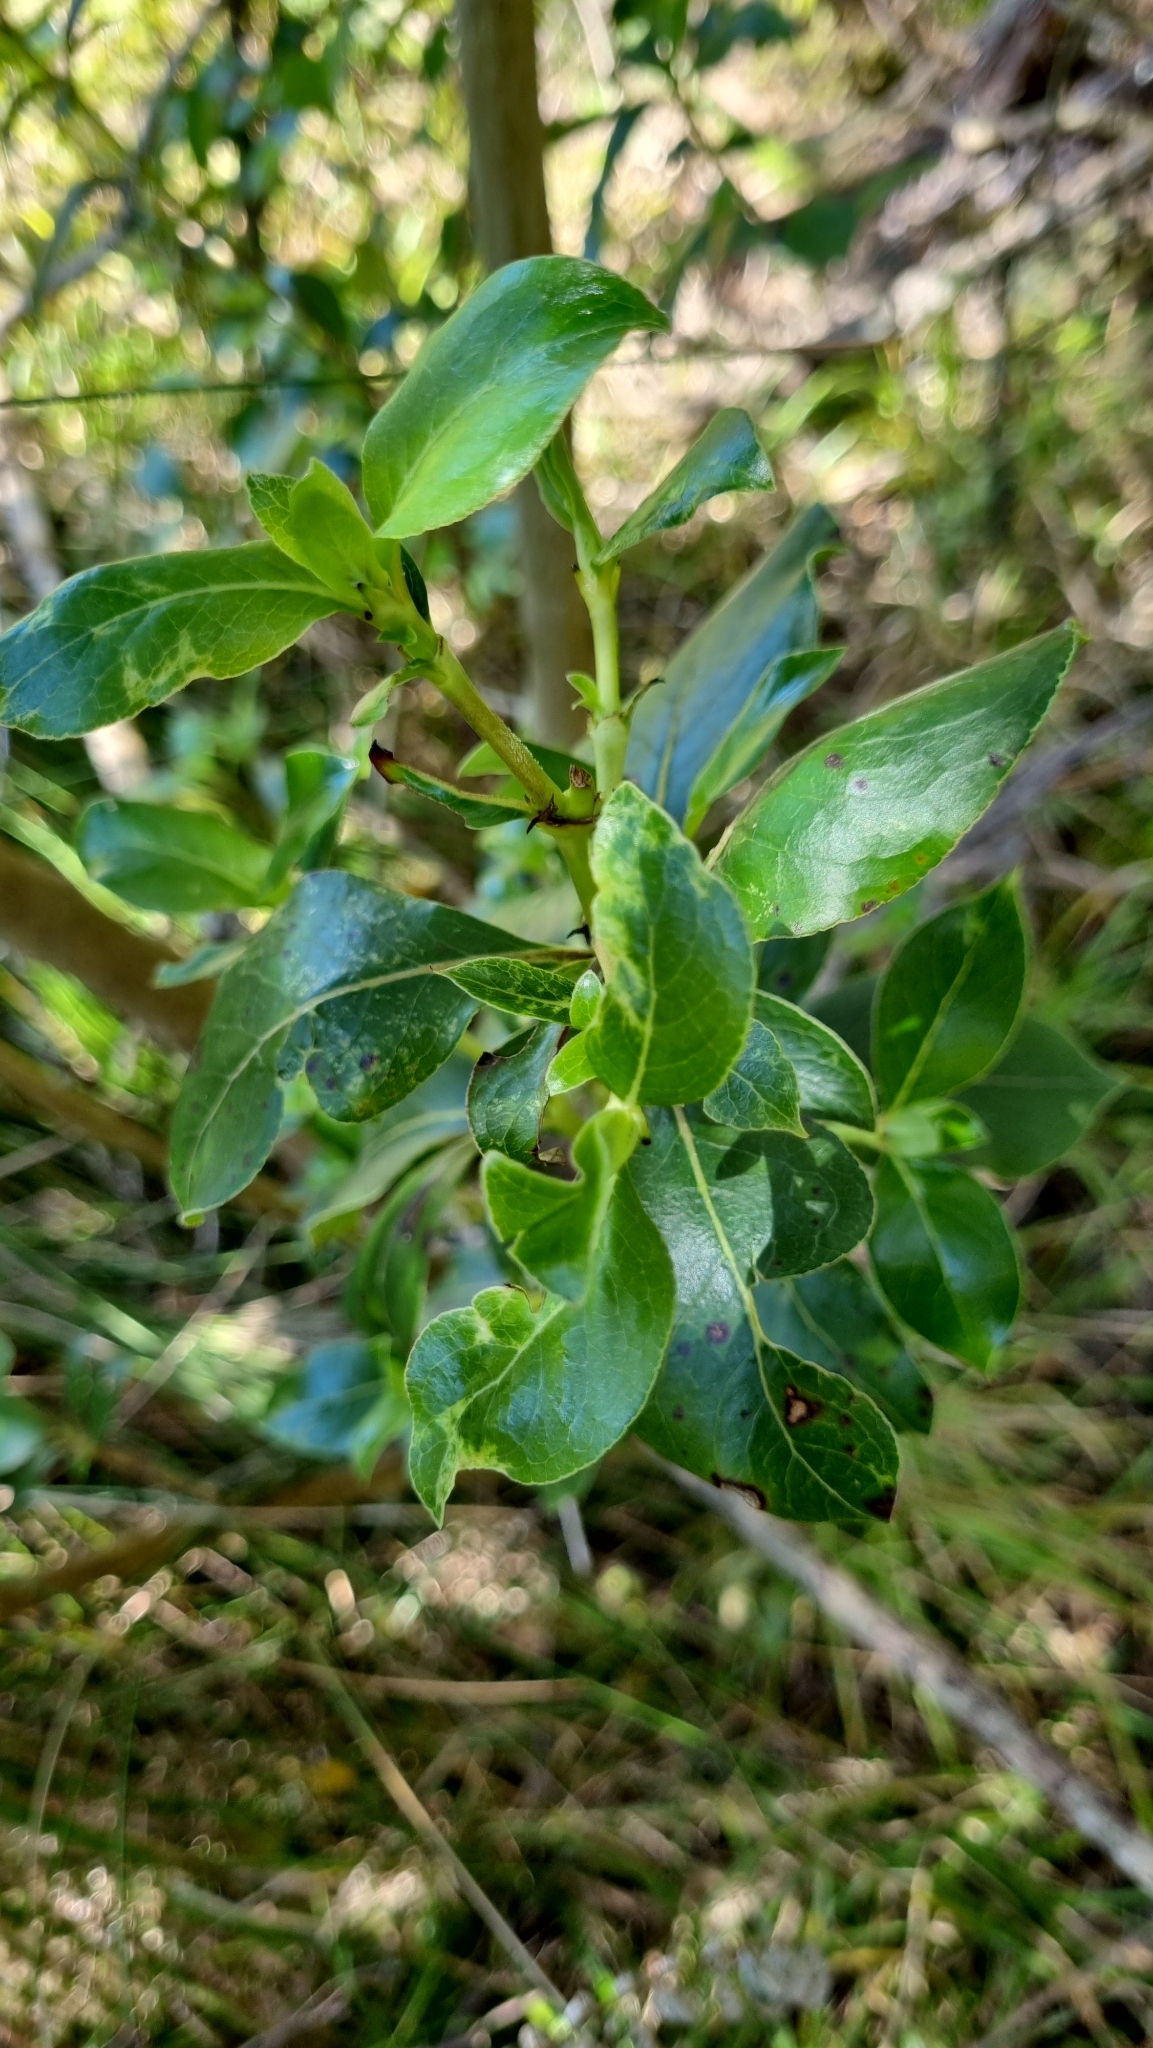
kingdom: Plantae
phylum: Tracheophyta
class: Magnoliopsida
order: Gentianales
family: Rubiaceae
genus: Coprosma
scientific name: Coprosma robusta
